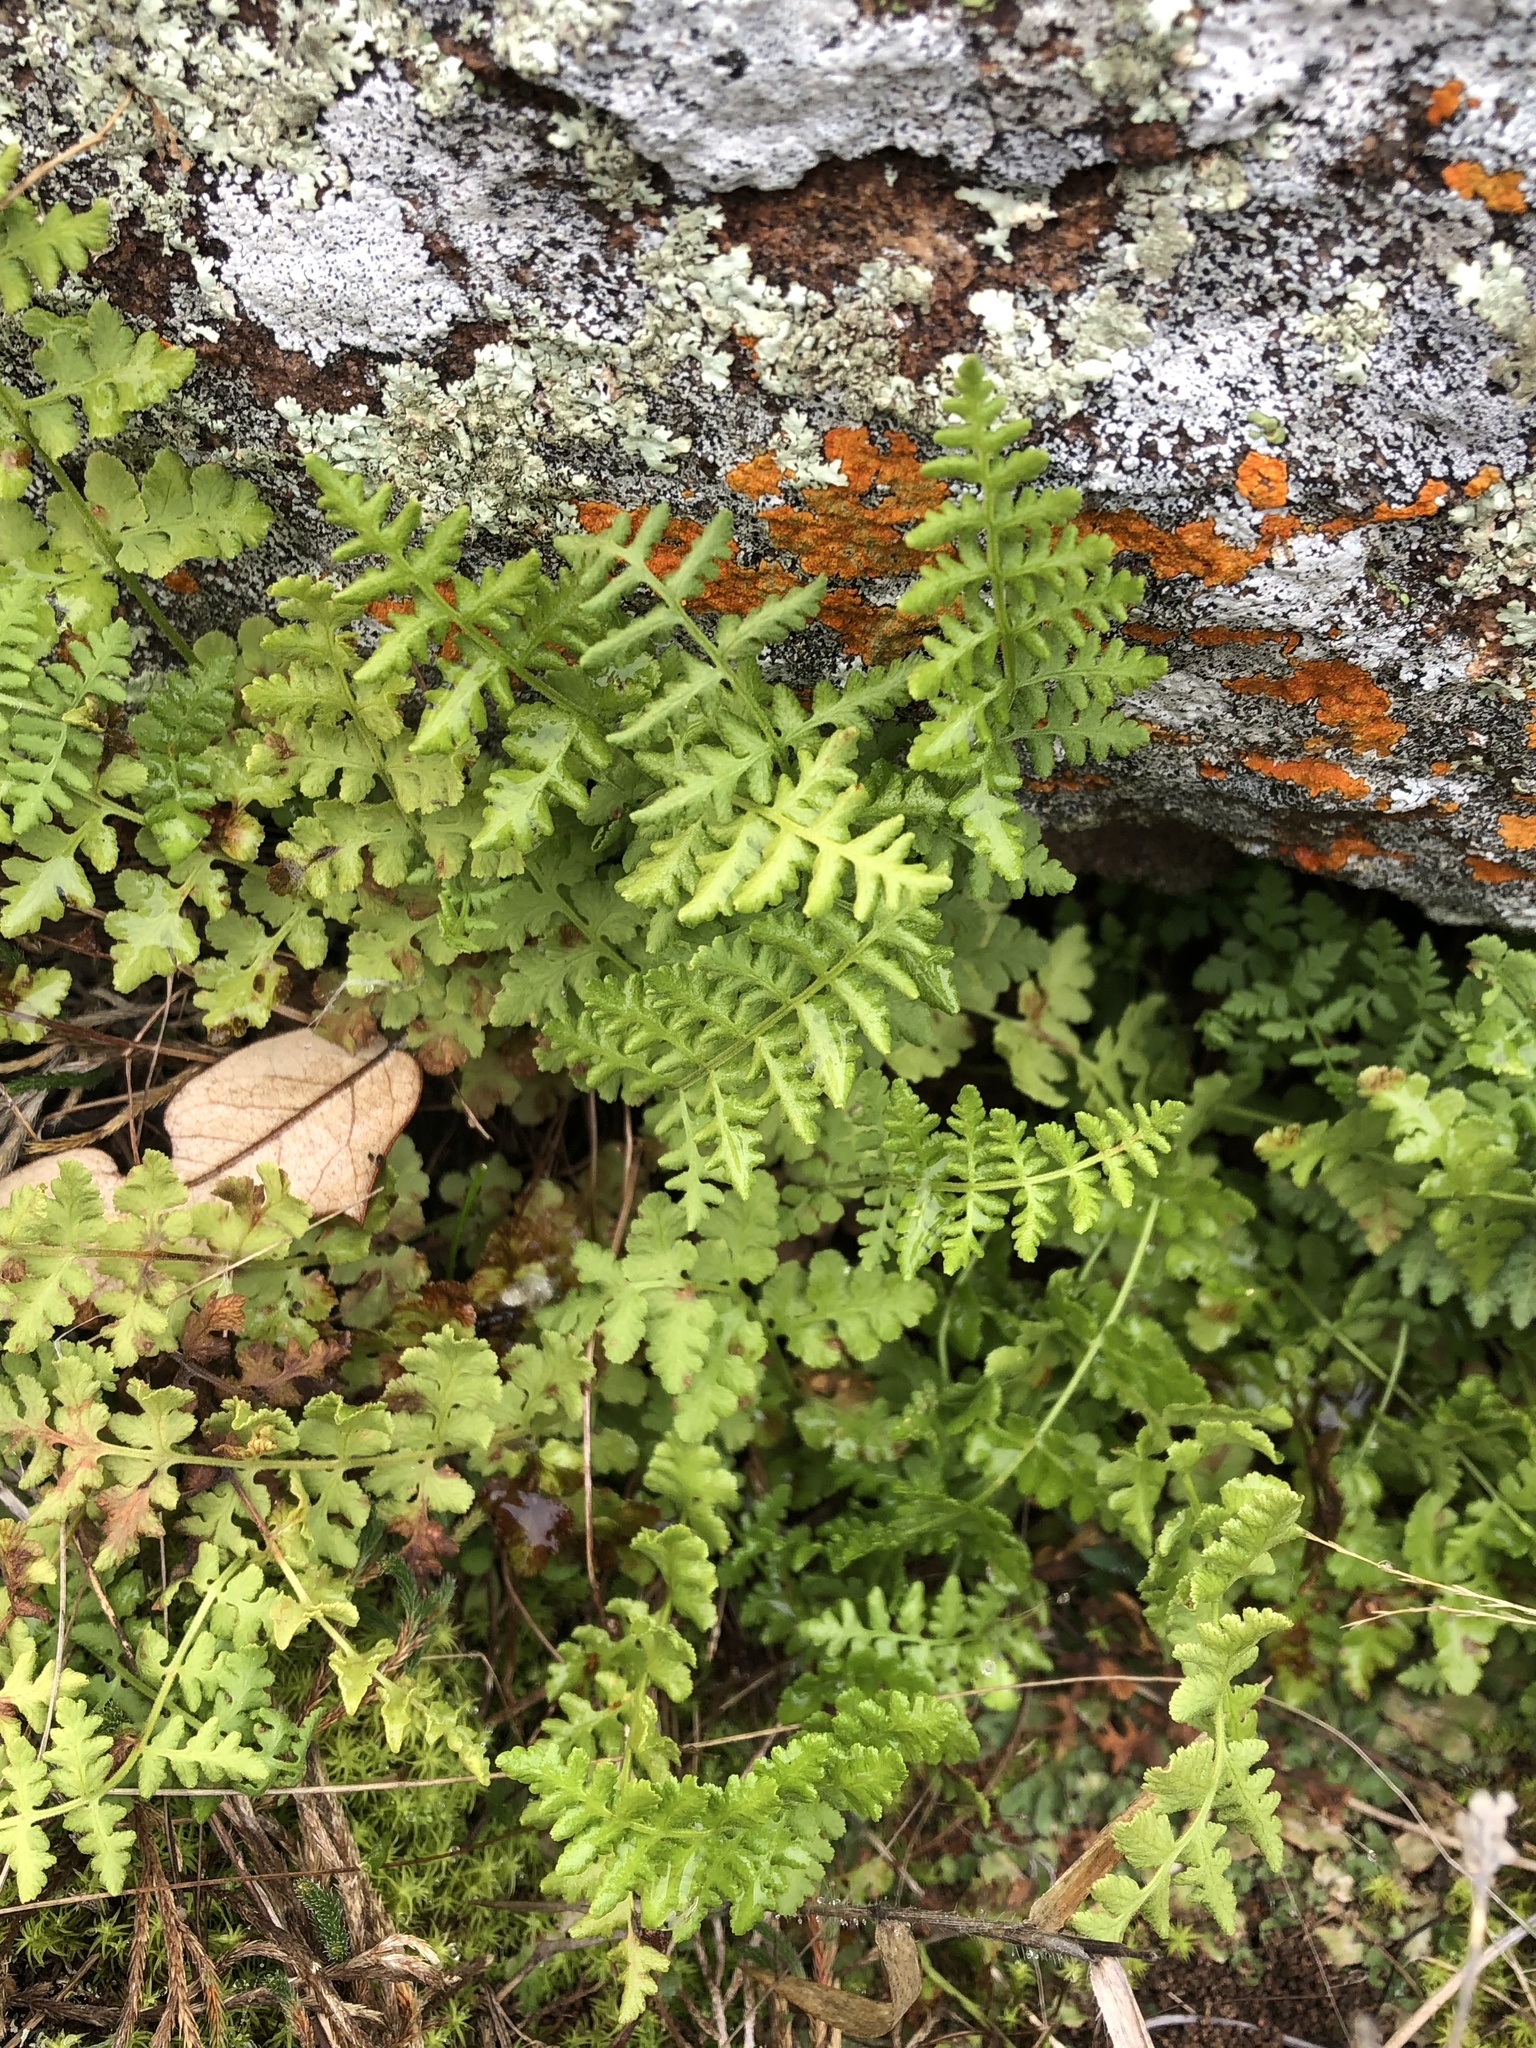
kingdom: Plantae
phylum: Tracheophyta
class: Polypodiopsida
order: Polypodiales
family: Woodsiaceae
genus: Physematium
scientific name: Physematium obtusum
